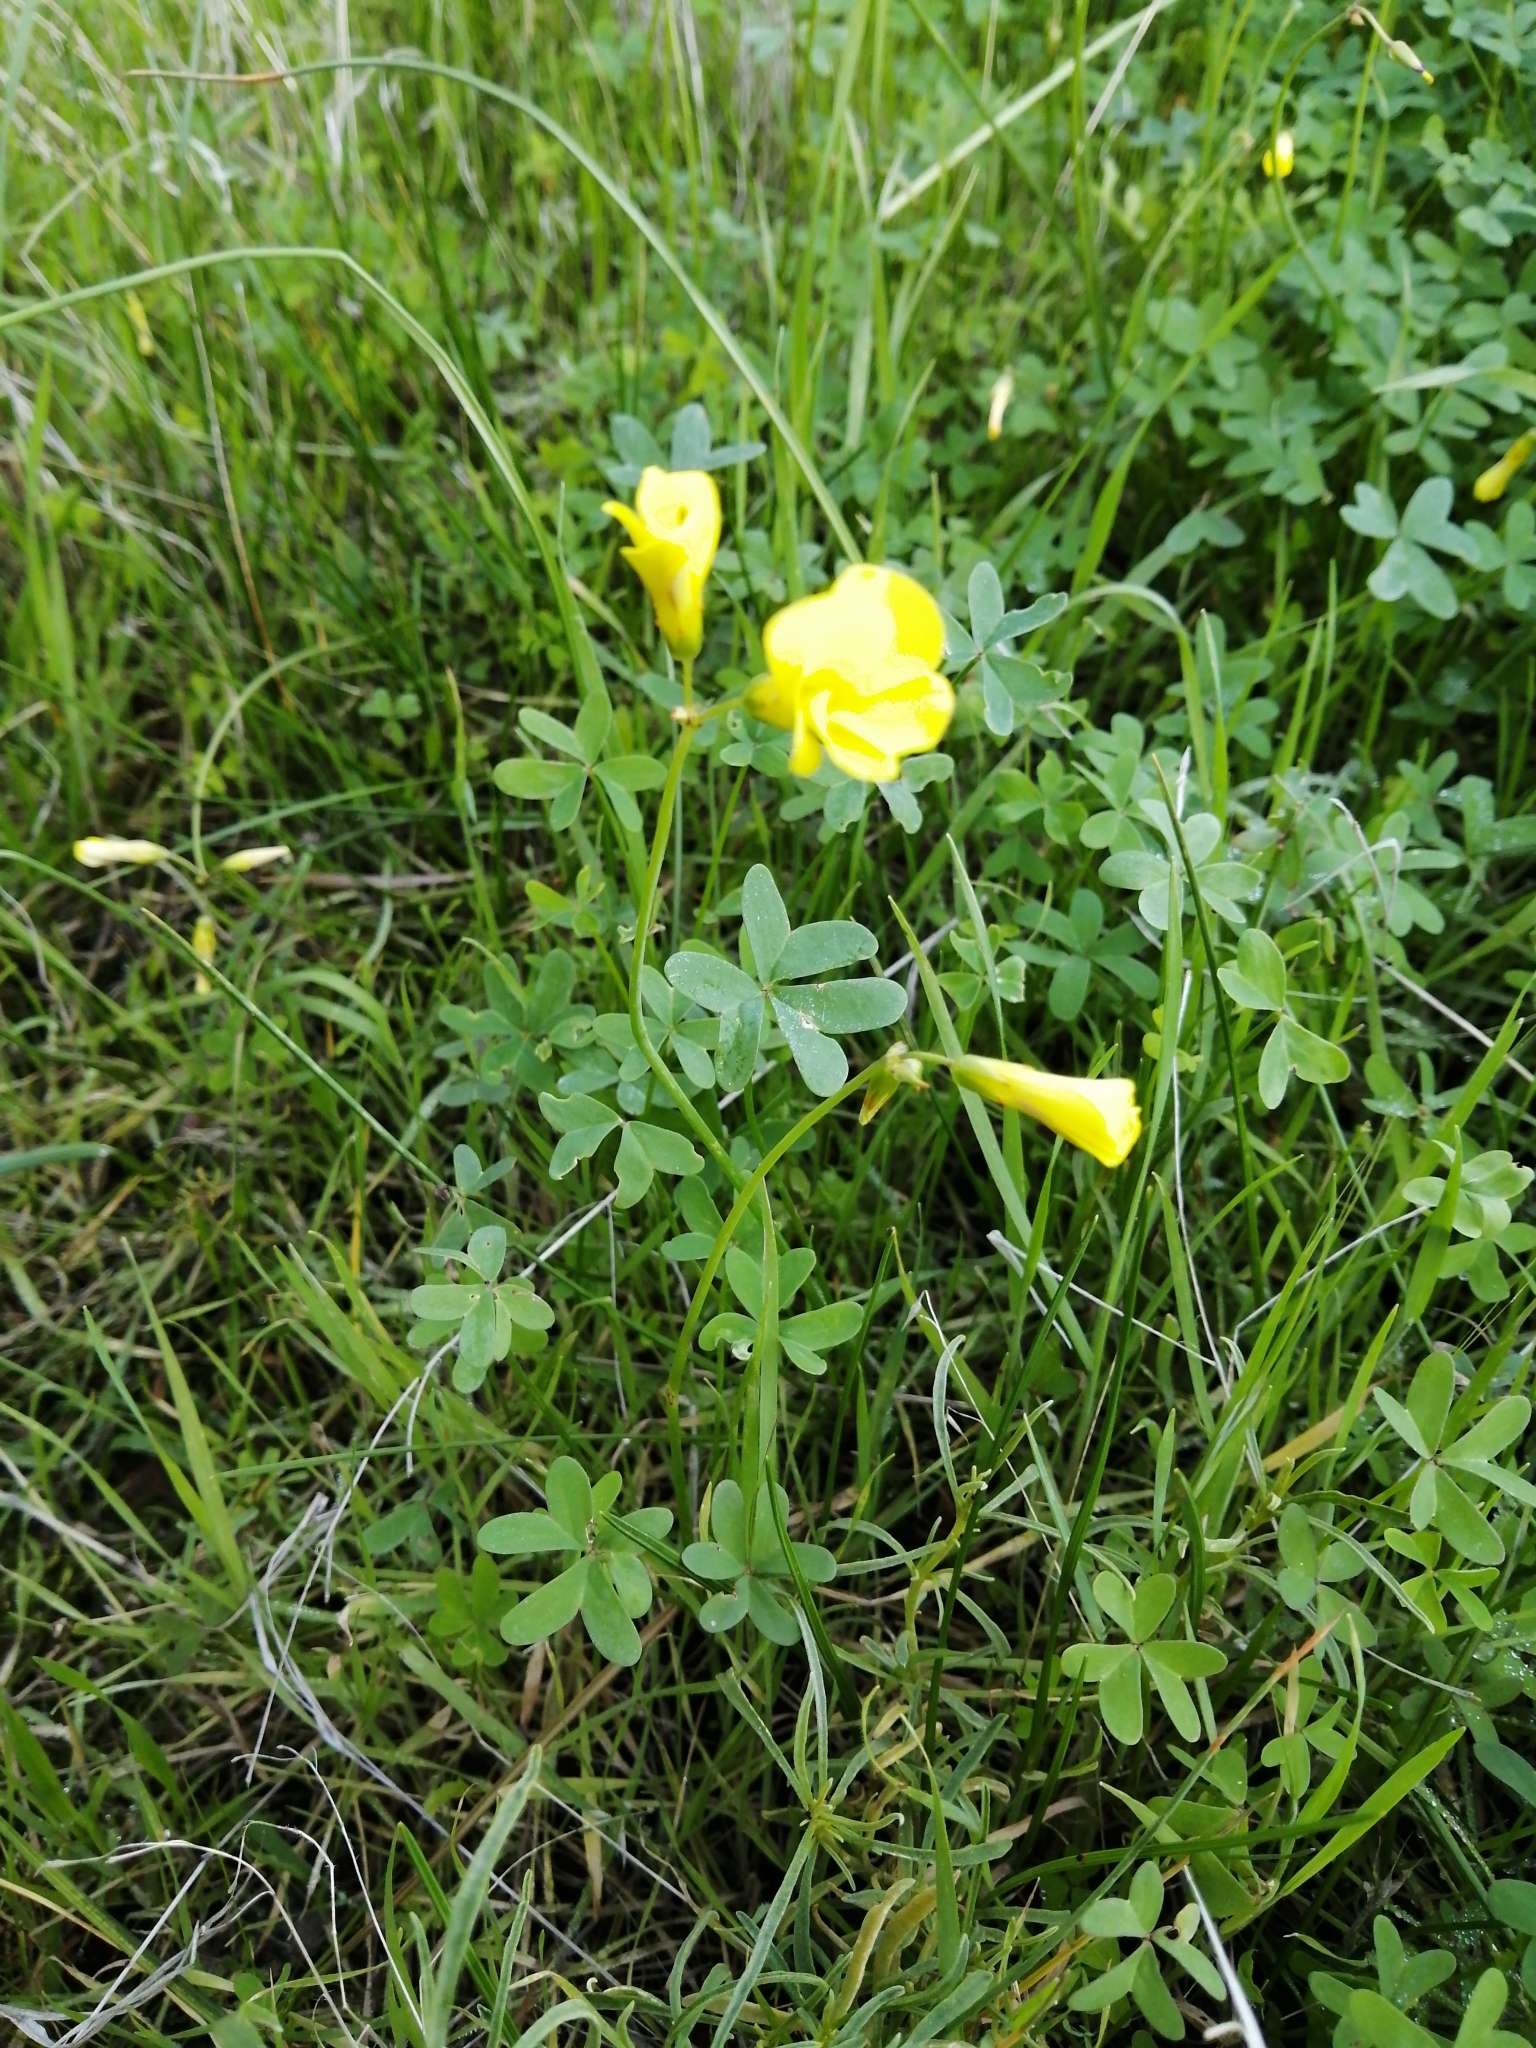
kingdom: Plantae
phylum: Tracheophyta
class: Magnoliopsida
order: Oxalidales
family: Oxalidaceae
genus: Oxalis
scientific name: Oxalis pes-caprae
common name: Bermuda-buttercup
